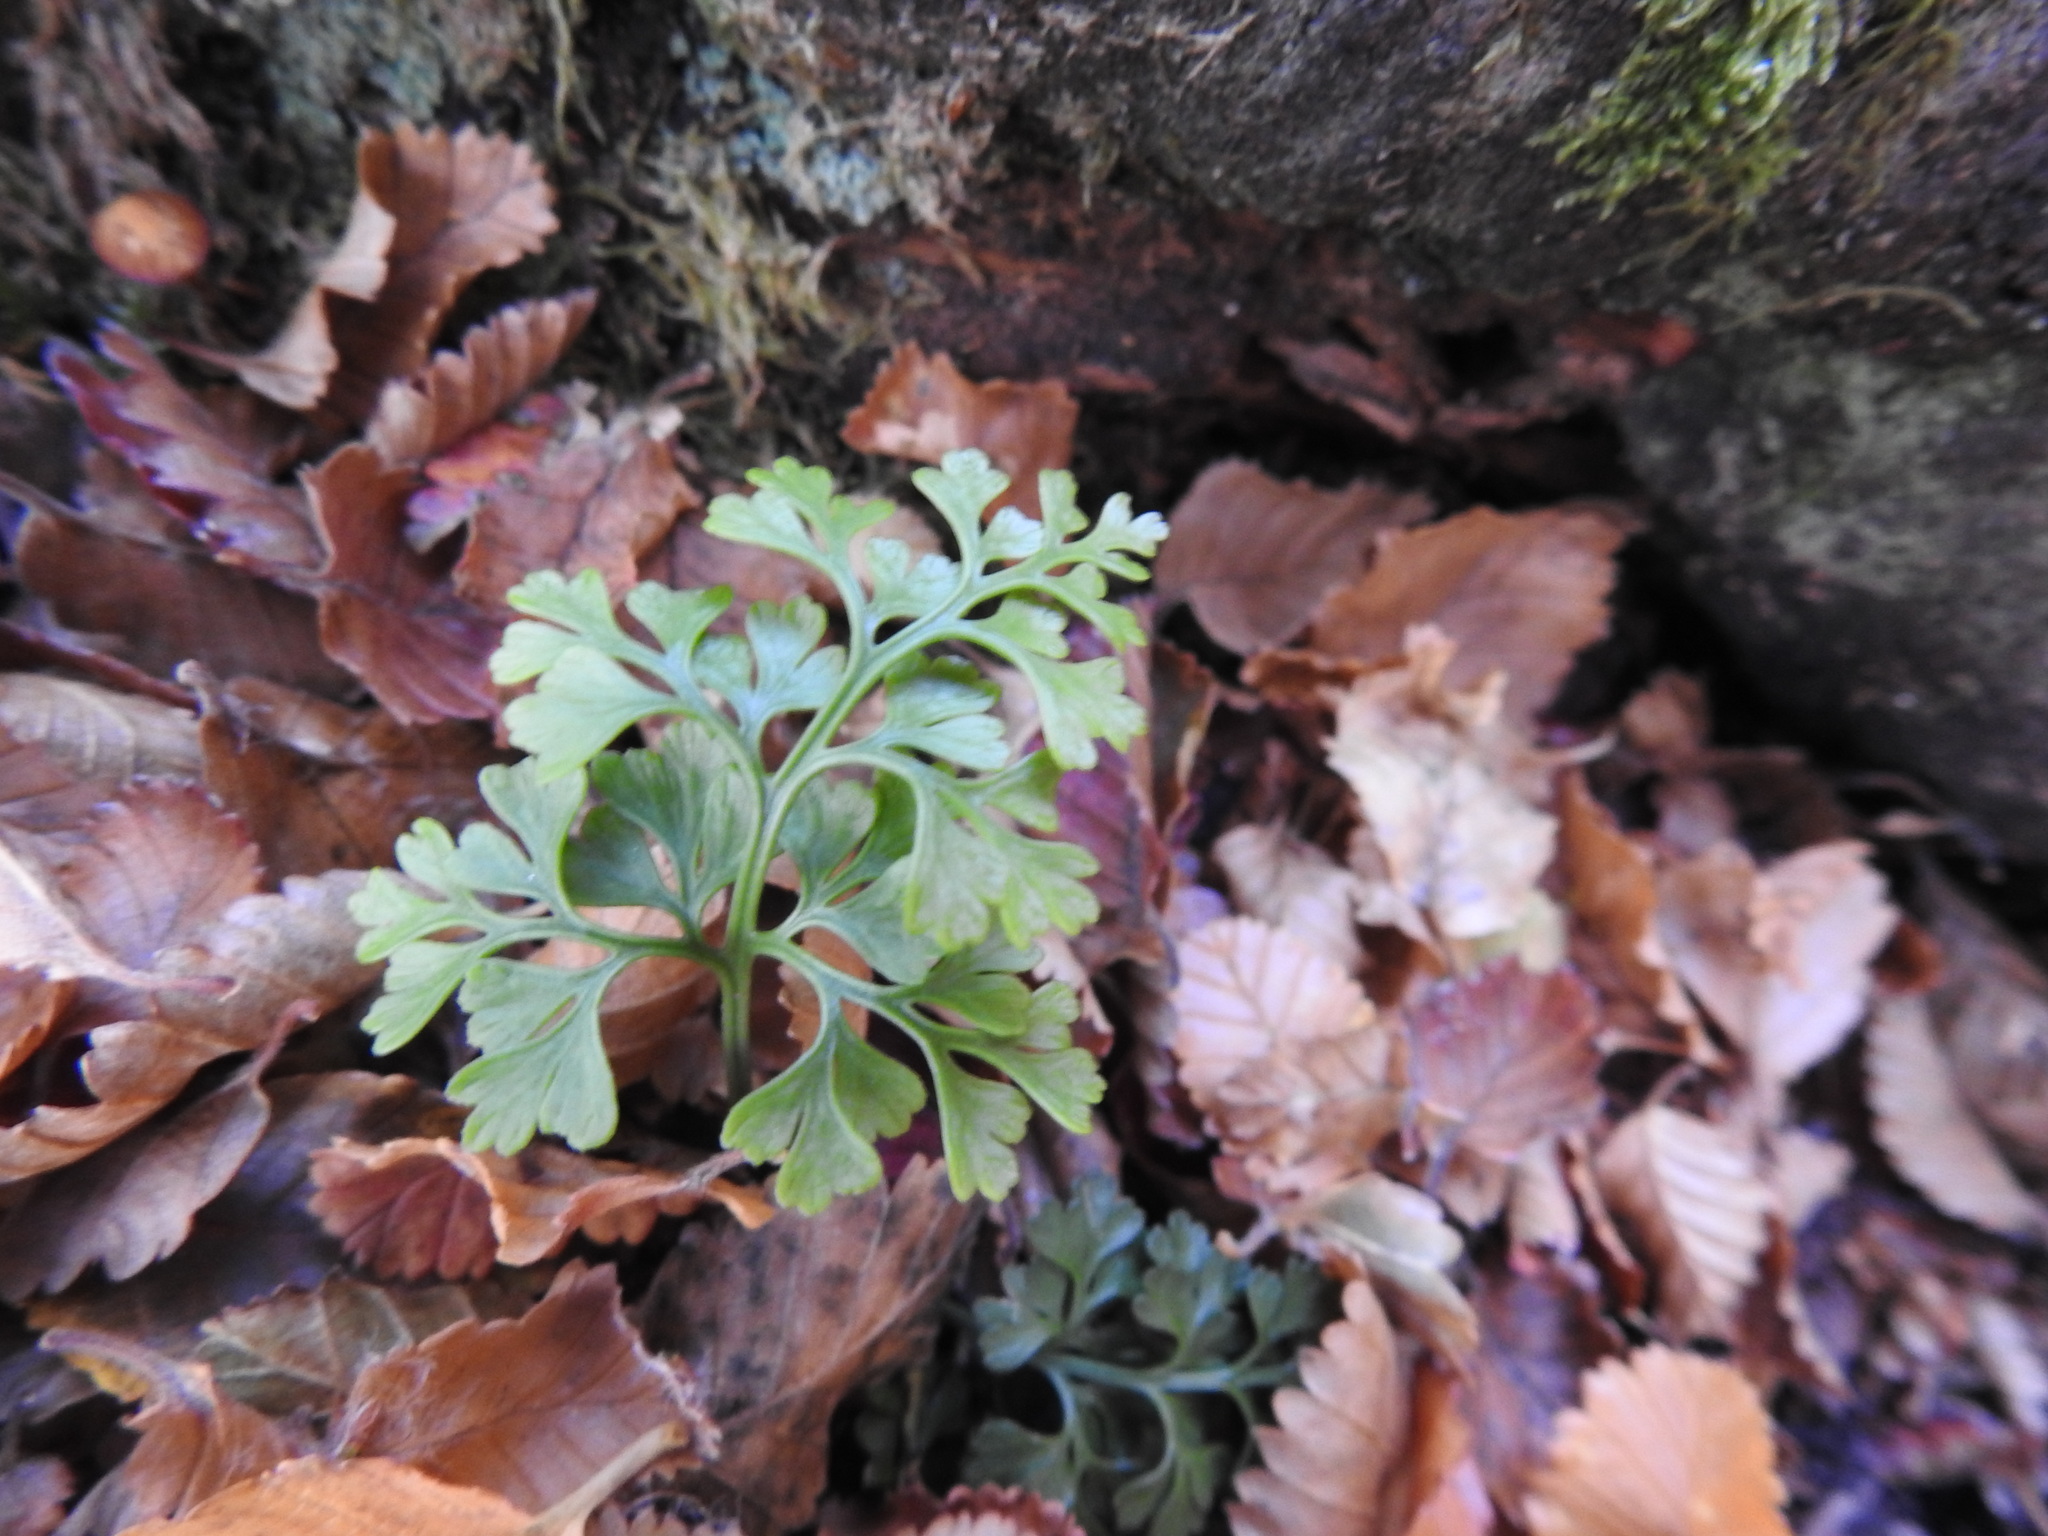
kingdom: Plantae
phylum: Tracheophyta
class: Polypodiopsida
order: Polypodiales
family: Aspleniaceae
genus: Asplenium
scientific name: Asplenium dareoides
